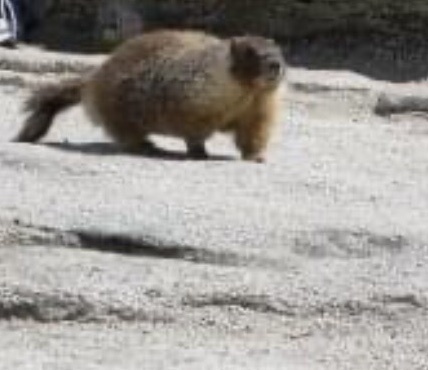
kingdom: Animalia
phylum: Chordata
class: Mammalia
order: Rodentia
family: Sciuridae
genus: Marmota
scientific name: Marmota flaviventris
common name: Yellow-bellied marmot
